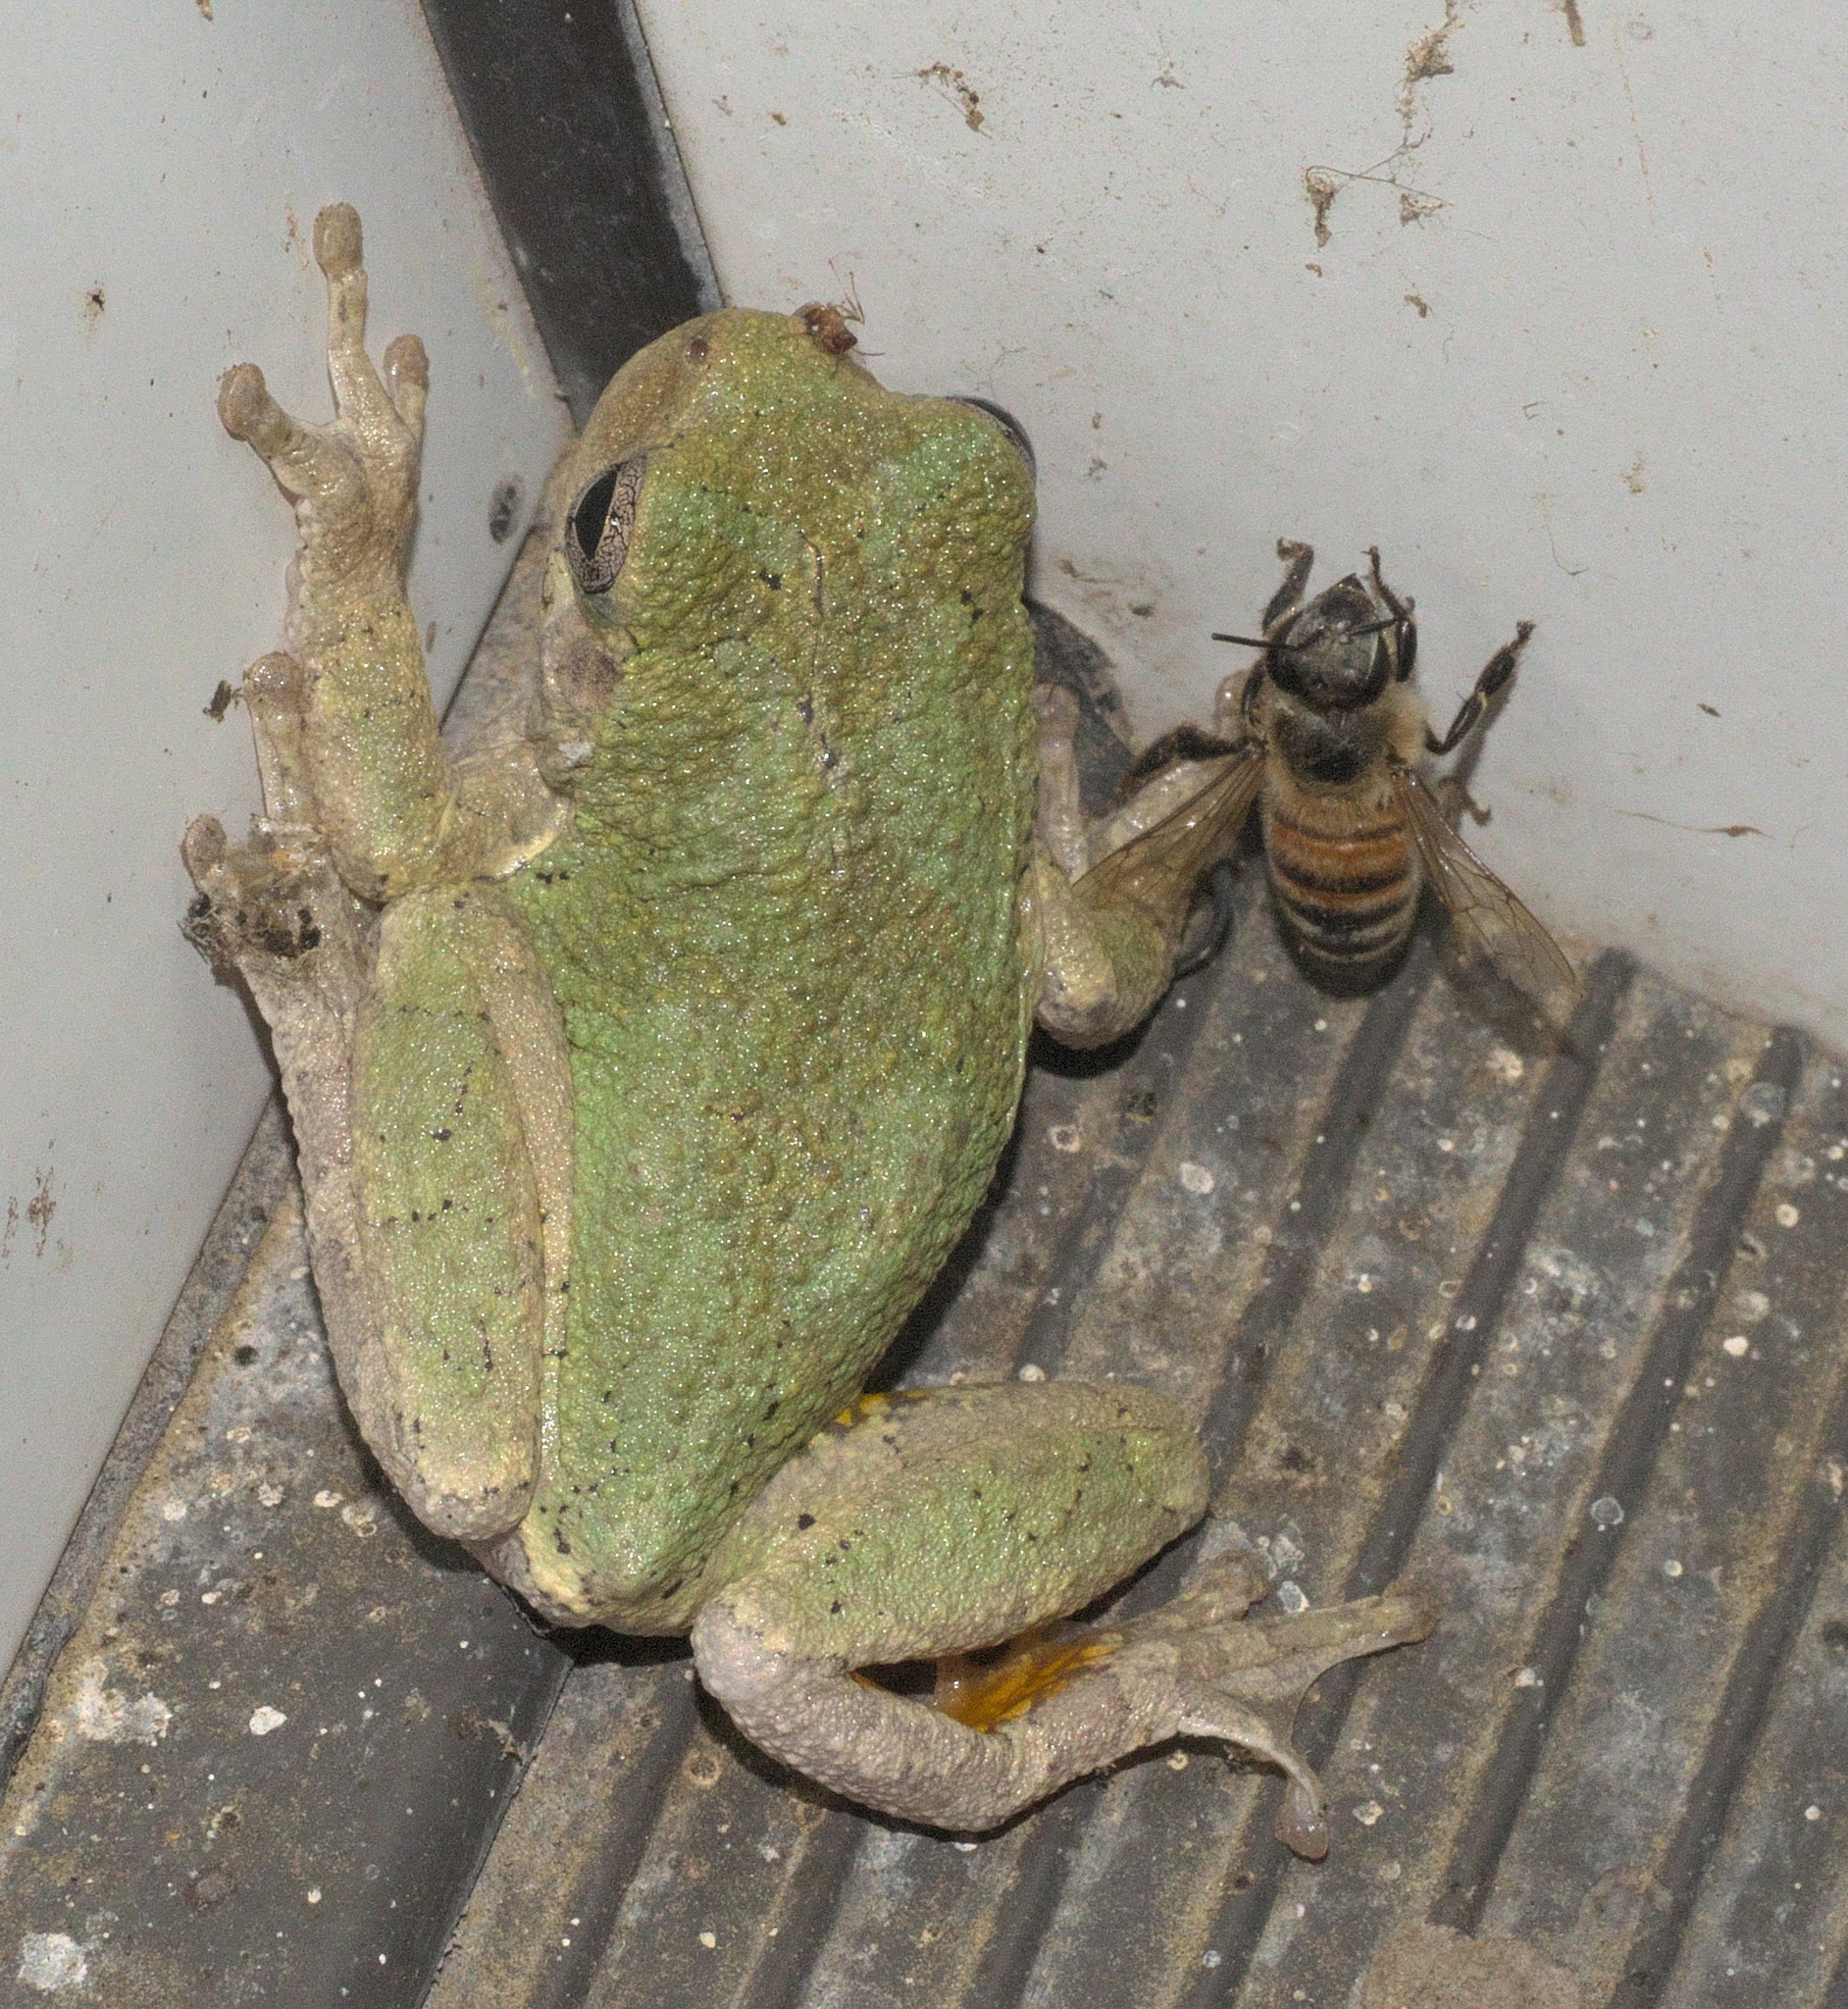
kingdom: Animalia
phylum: Chordata
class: Amphibia
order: Anura
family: Hylidae
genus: Hyla
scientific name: Hyla
